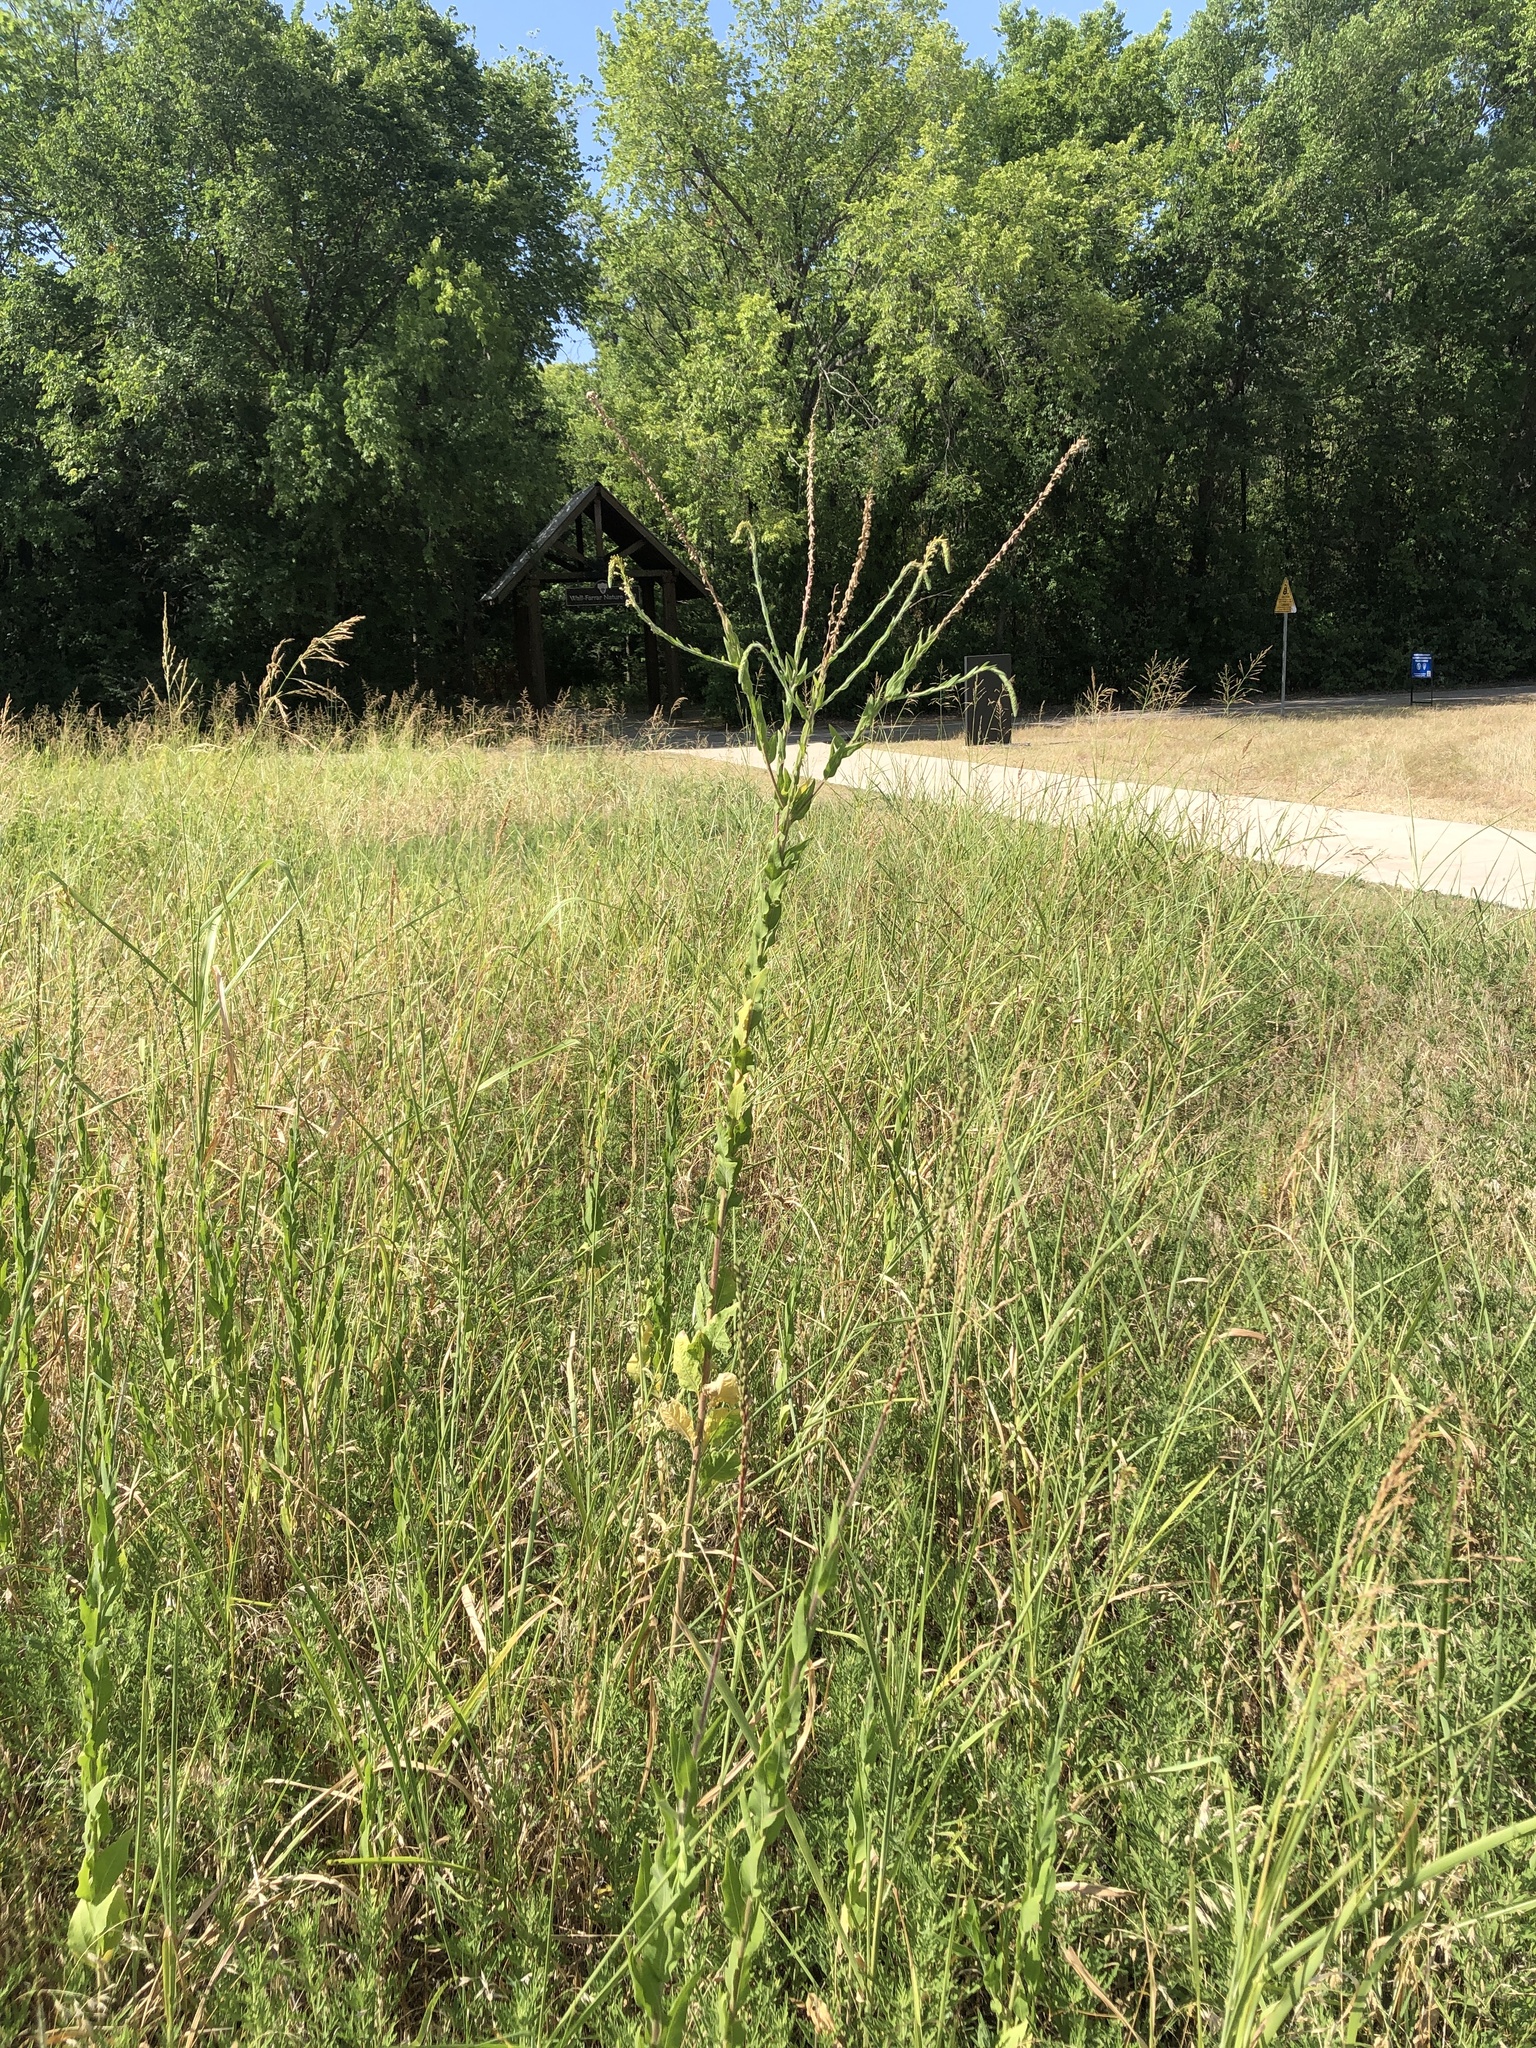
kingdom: Plantae
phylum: Tracheophyta
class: Magnoliopsida
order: Myrtales
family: Onagraceae
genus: Oenothera
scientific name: Oenothera curtiflora
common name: Velvetweed
